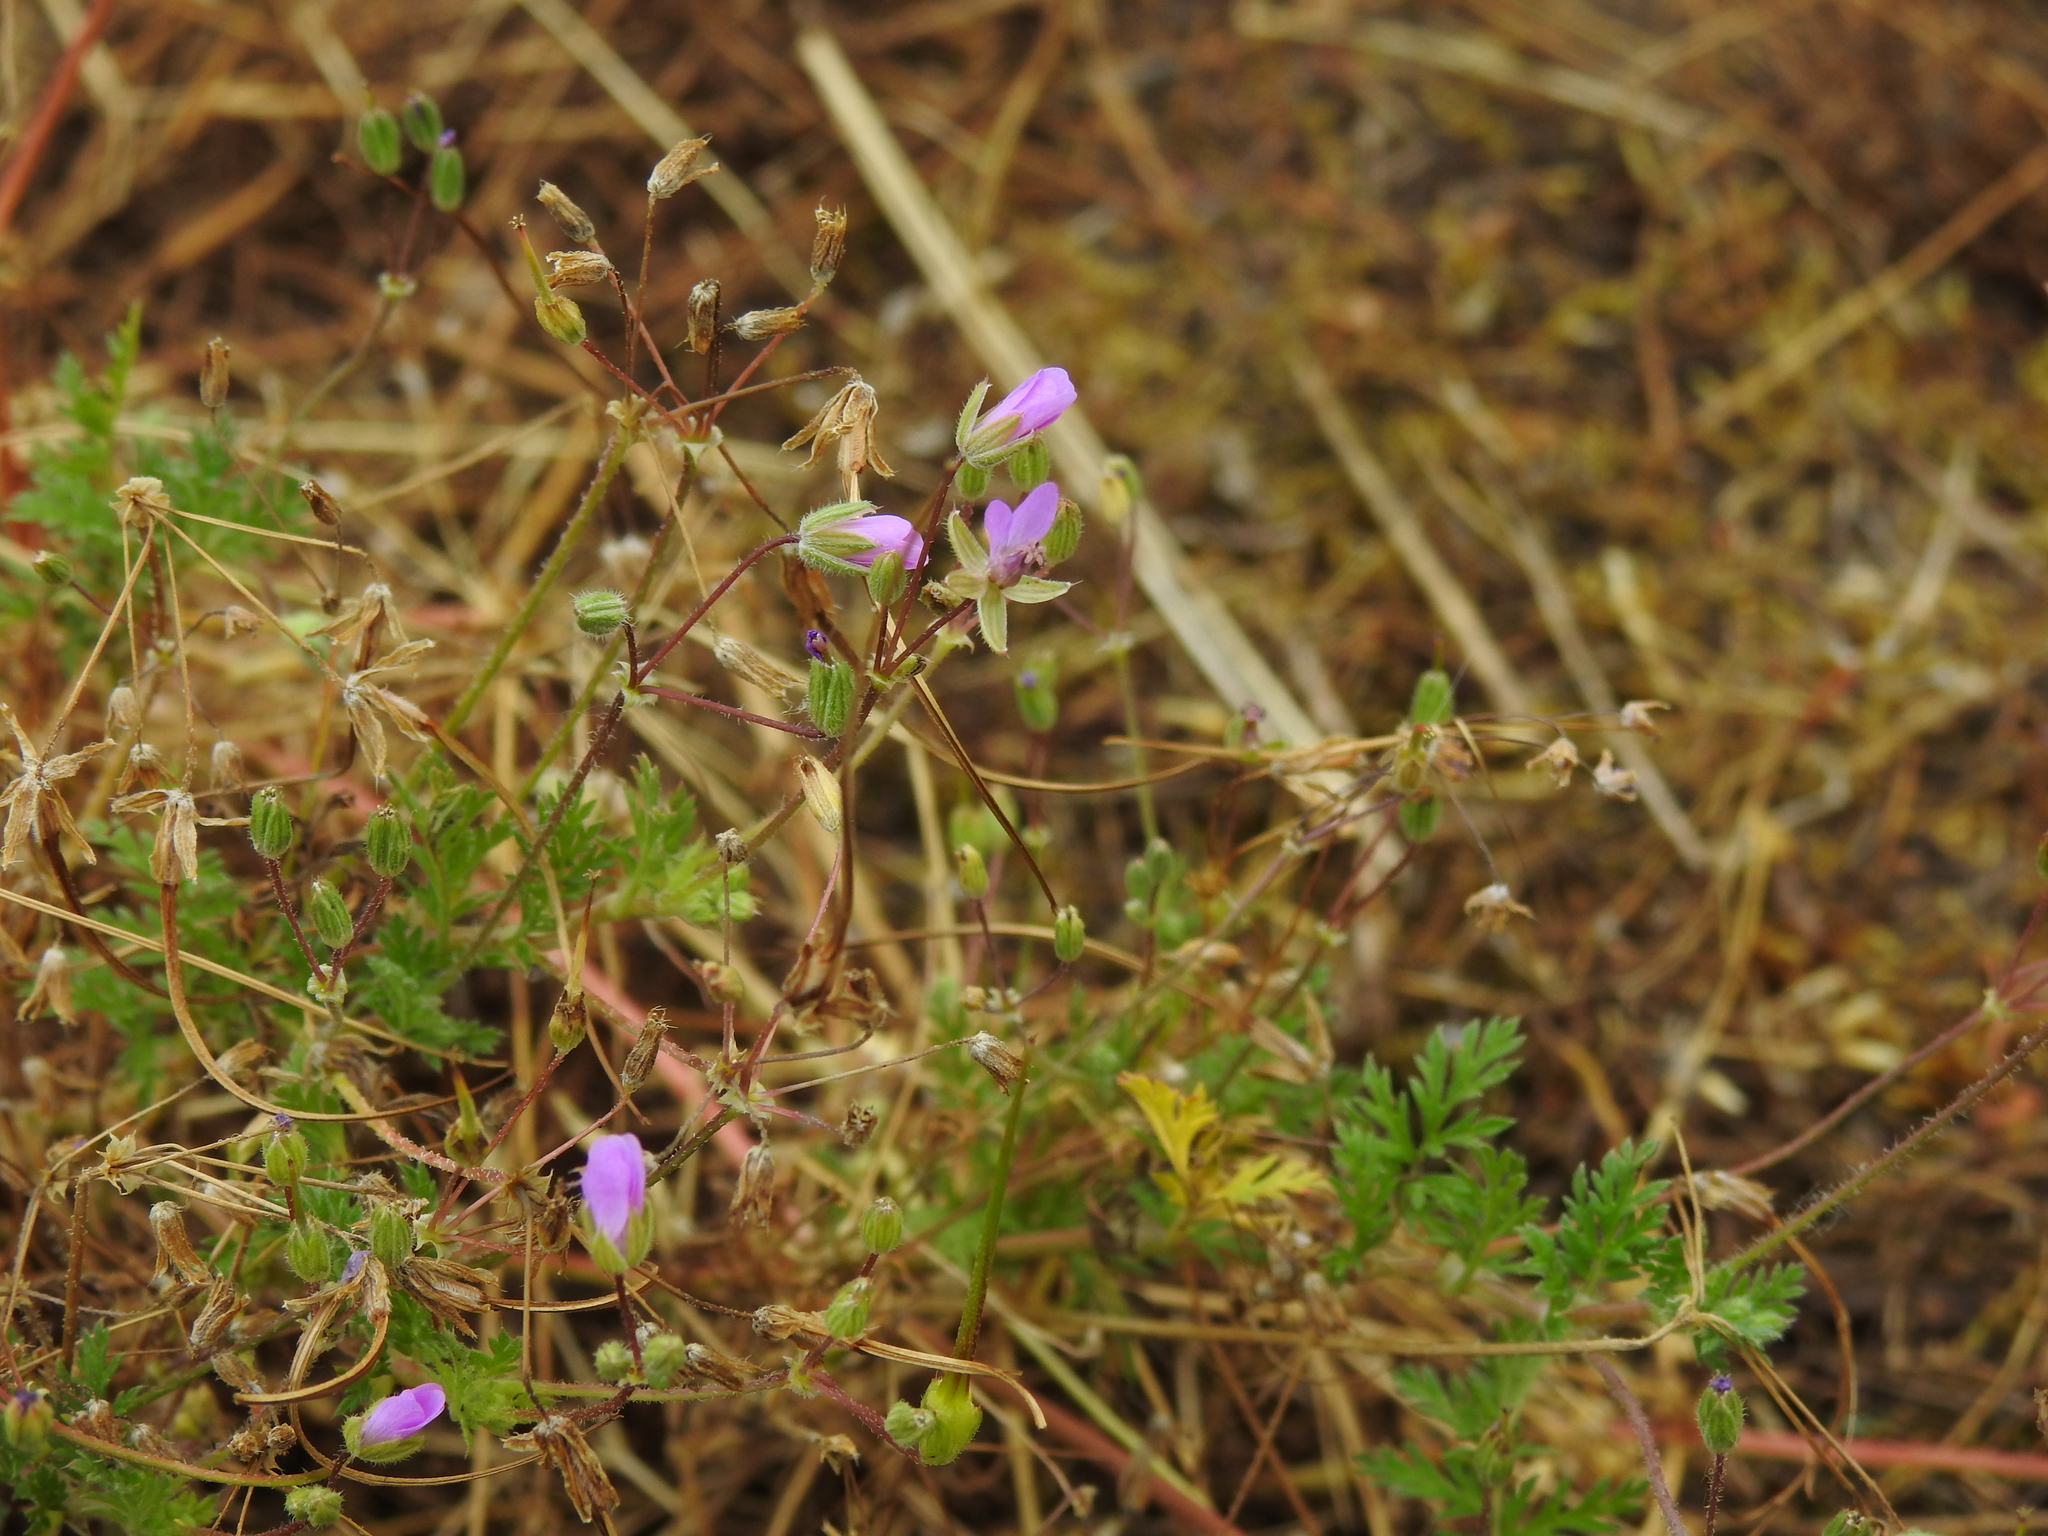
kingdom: Plantae
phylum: Tracheophyta
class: Magnoliopsida
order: Geraniales
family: Geraniaceae
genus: Erodium
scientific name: Erodium cicutarium
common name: Common stork's-bill
